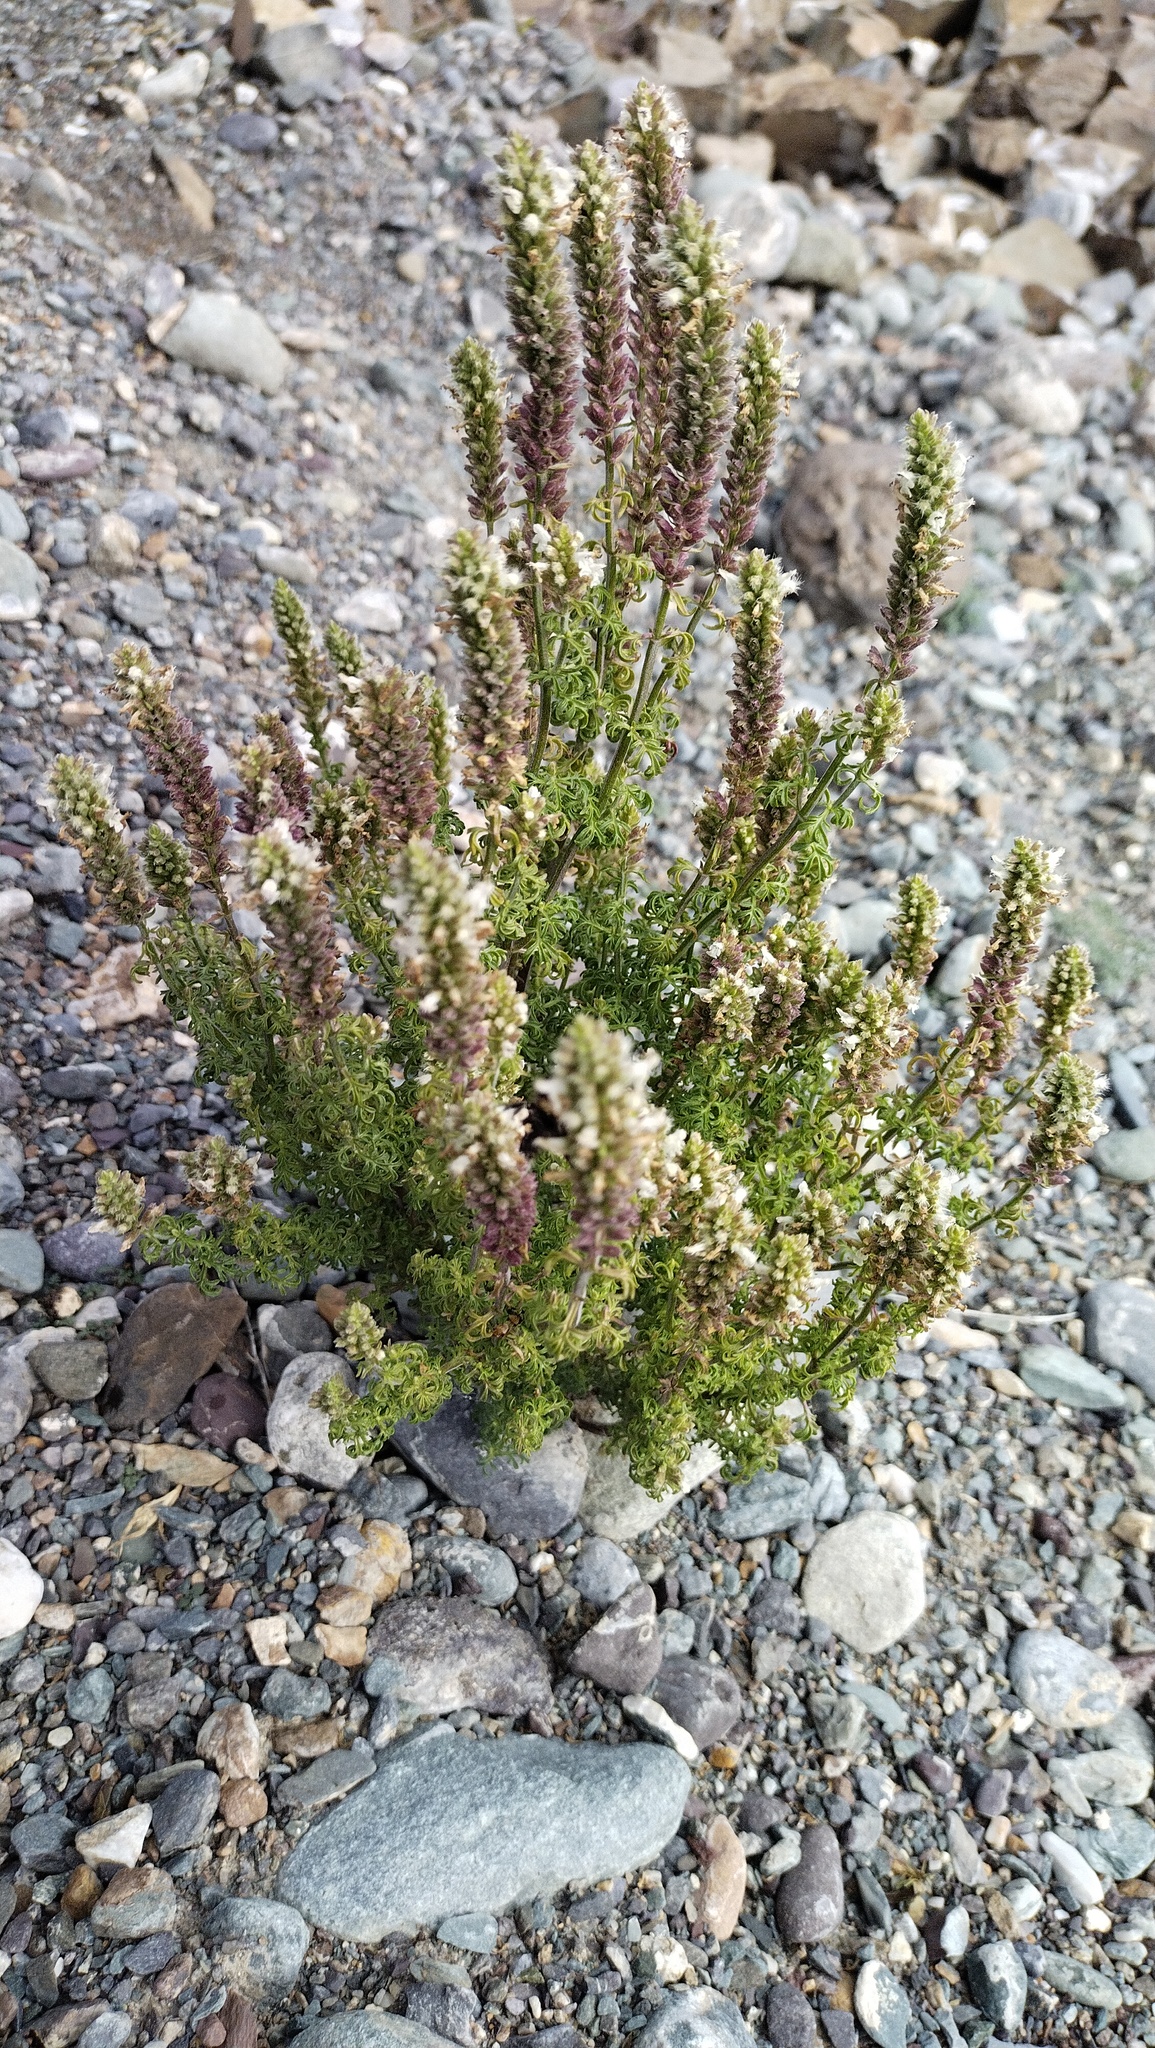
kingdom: Plantae
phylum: Tracheophyta
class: Magnoliopsida
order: Lamiales
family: Lamiaceae
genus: Nepeta
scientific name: Nepeta annua
